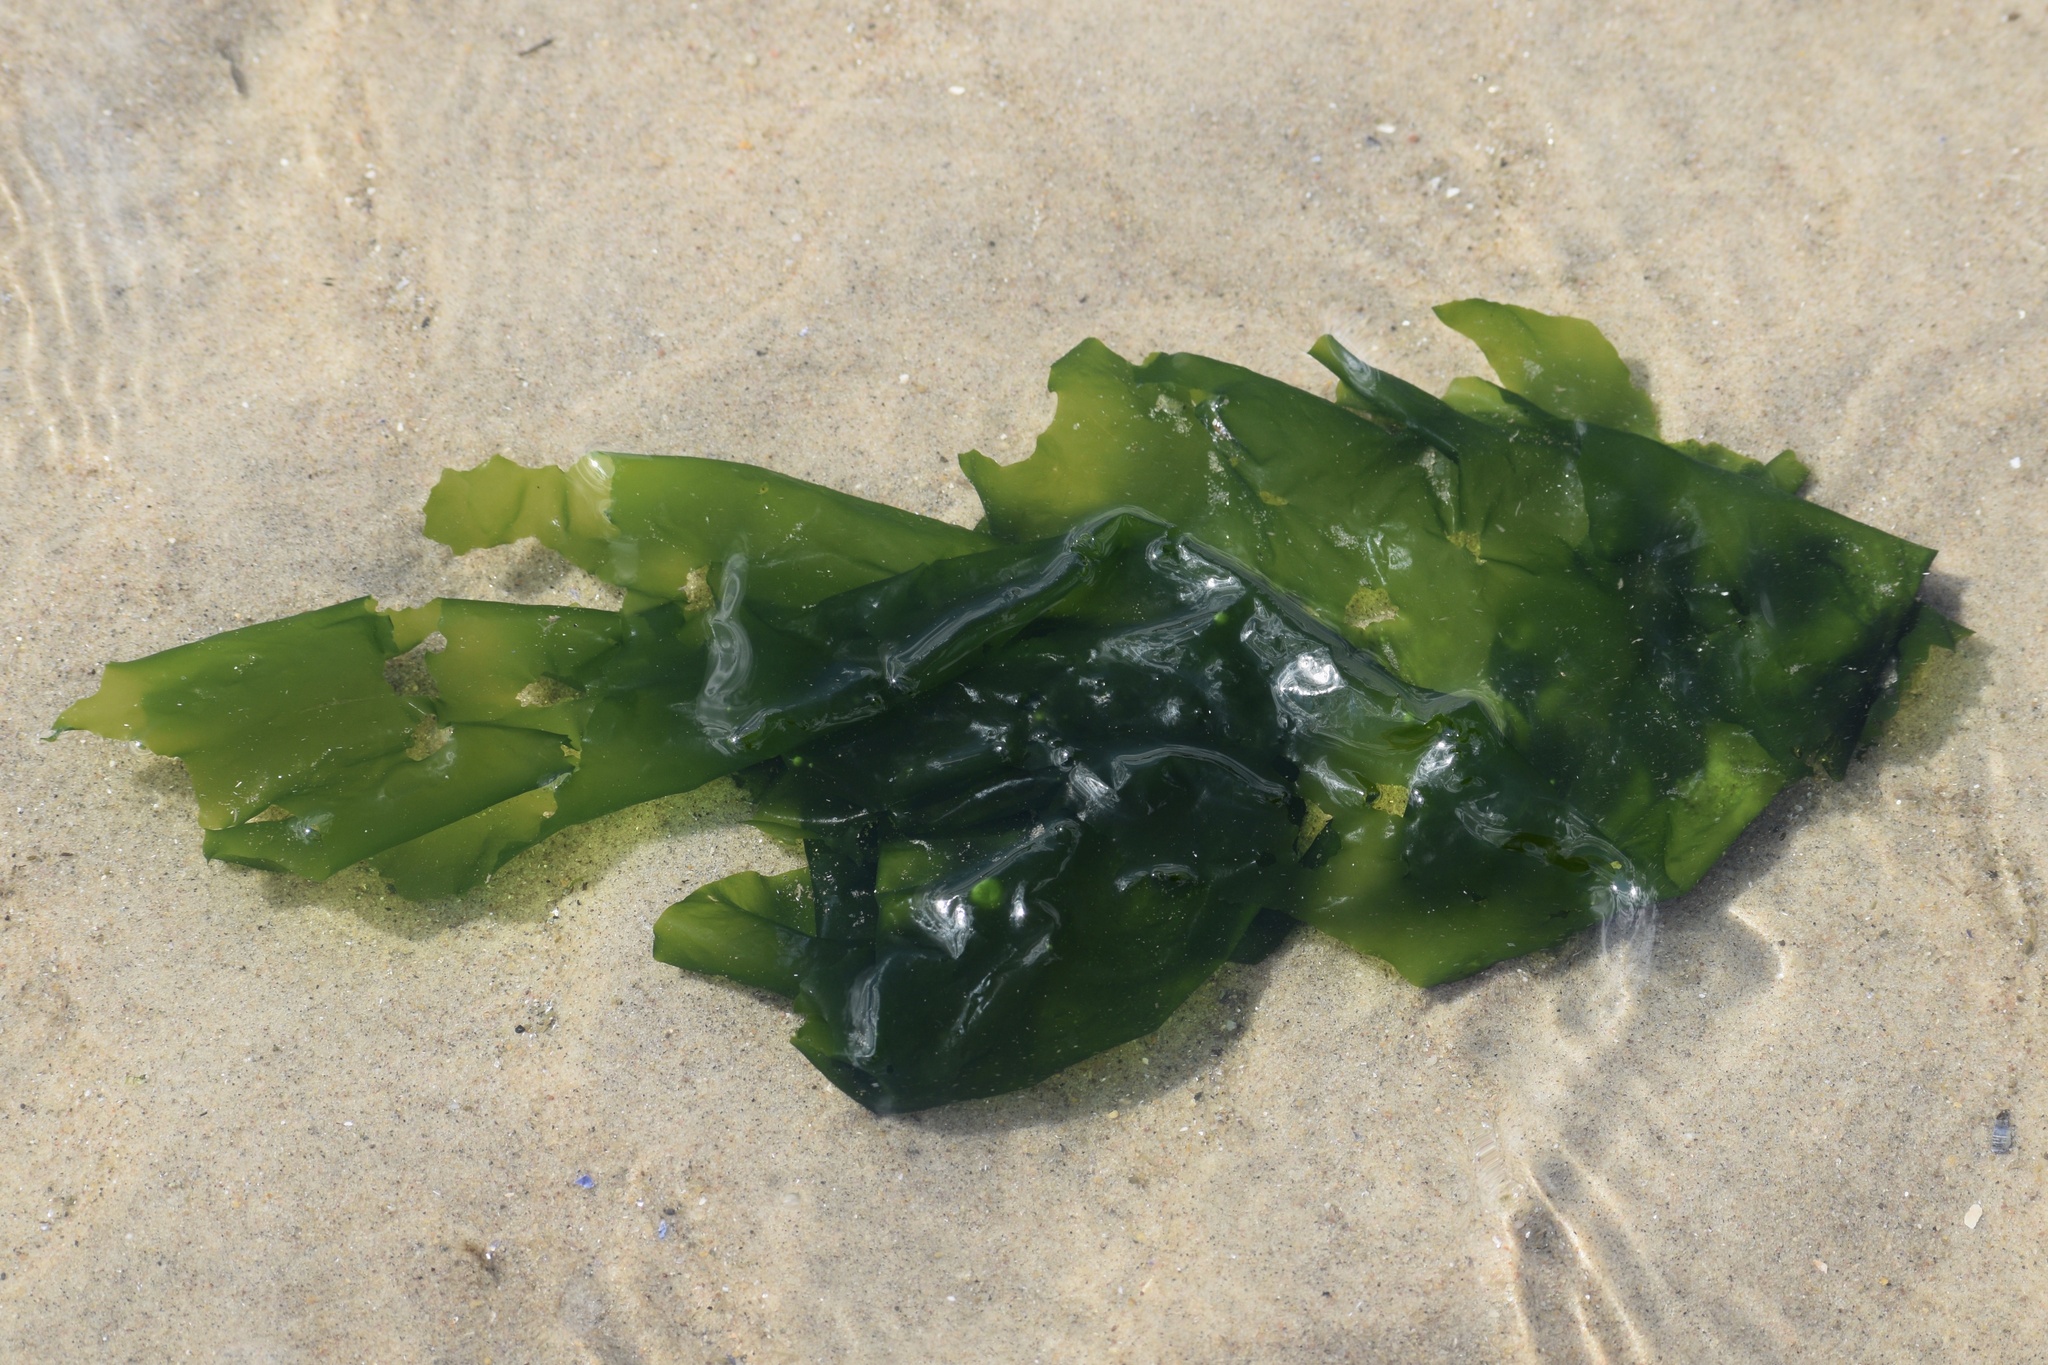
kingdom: Plantae
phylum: Chlorophyta
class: Ulvophyceae
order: Ulvales
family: Ulvaceae
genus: Ulva
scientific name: Ulva lactuca
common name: Sea lettuce
